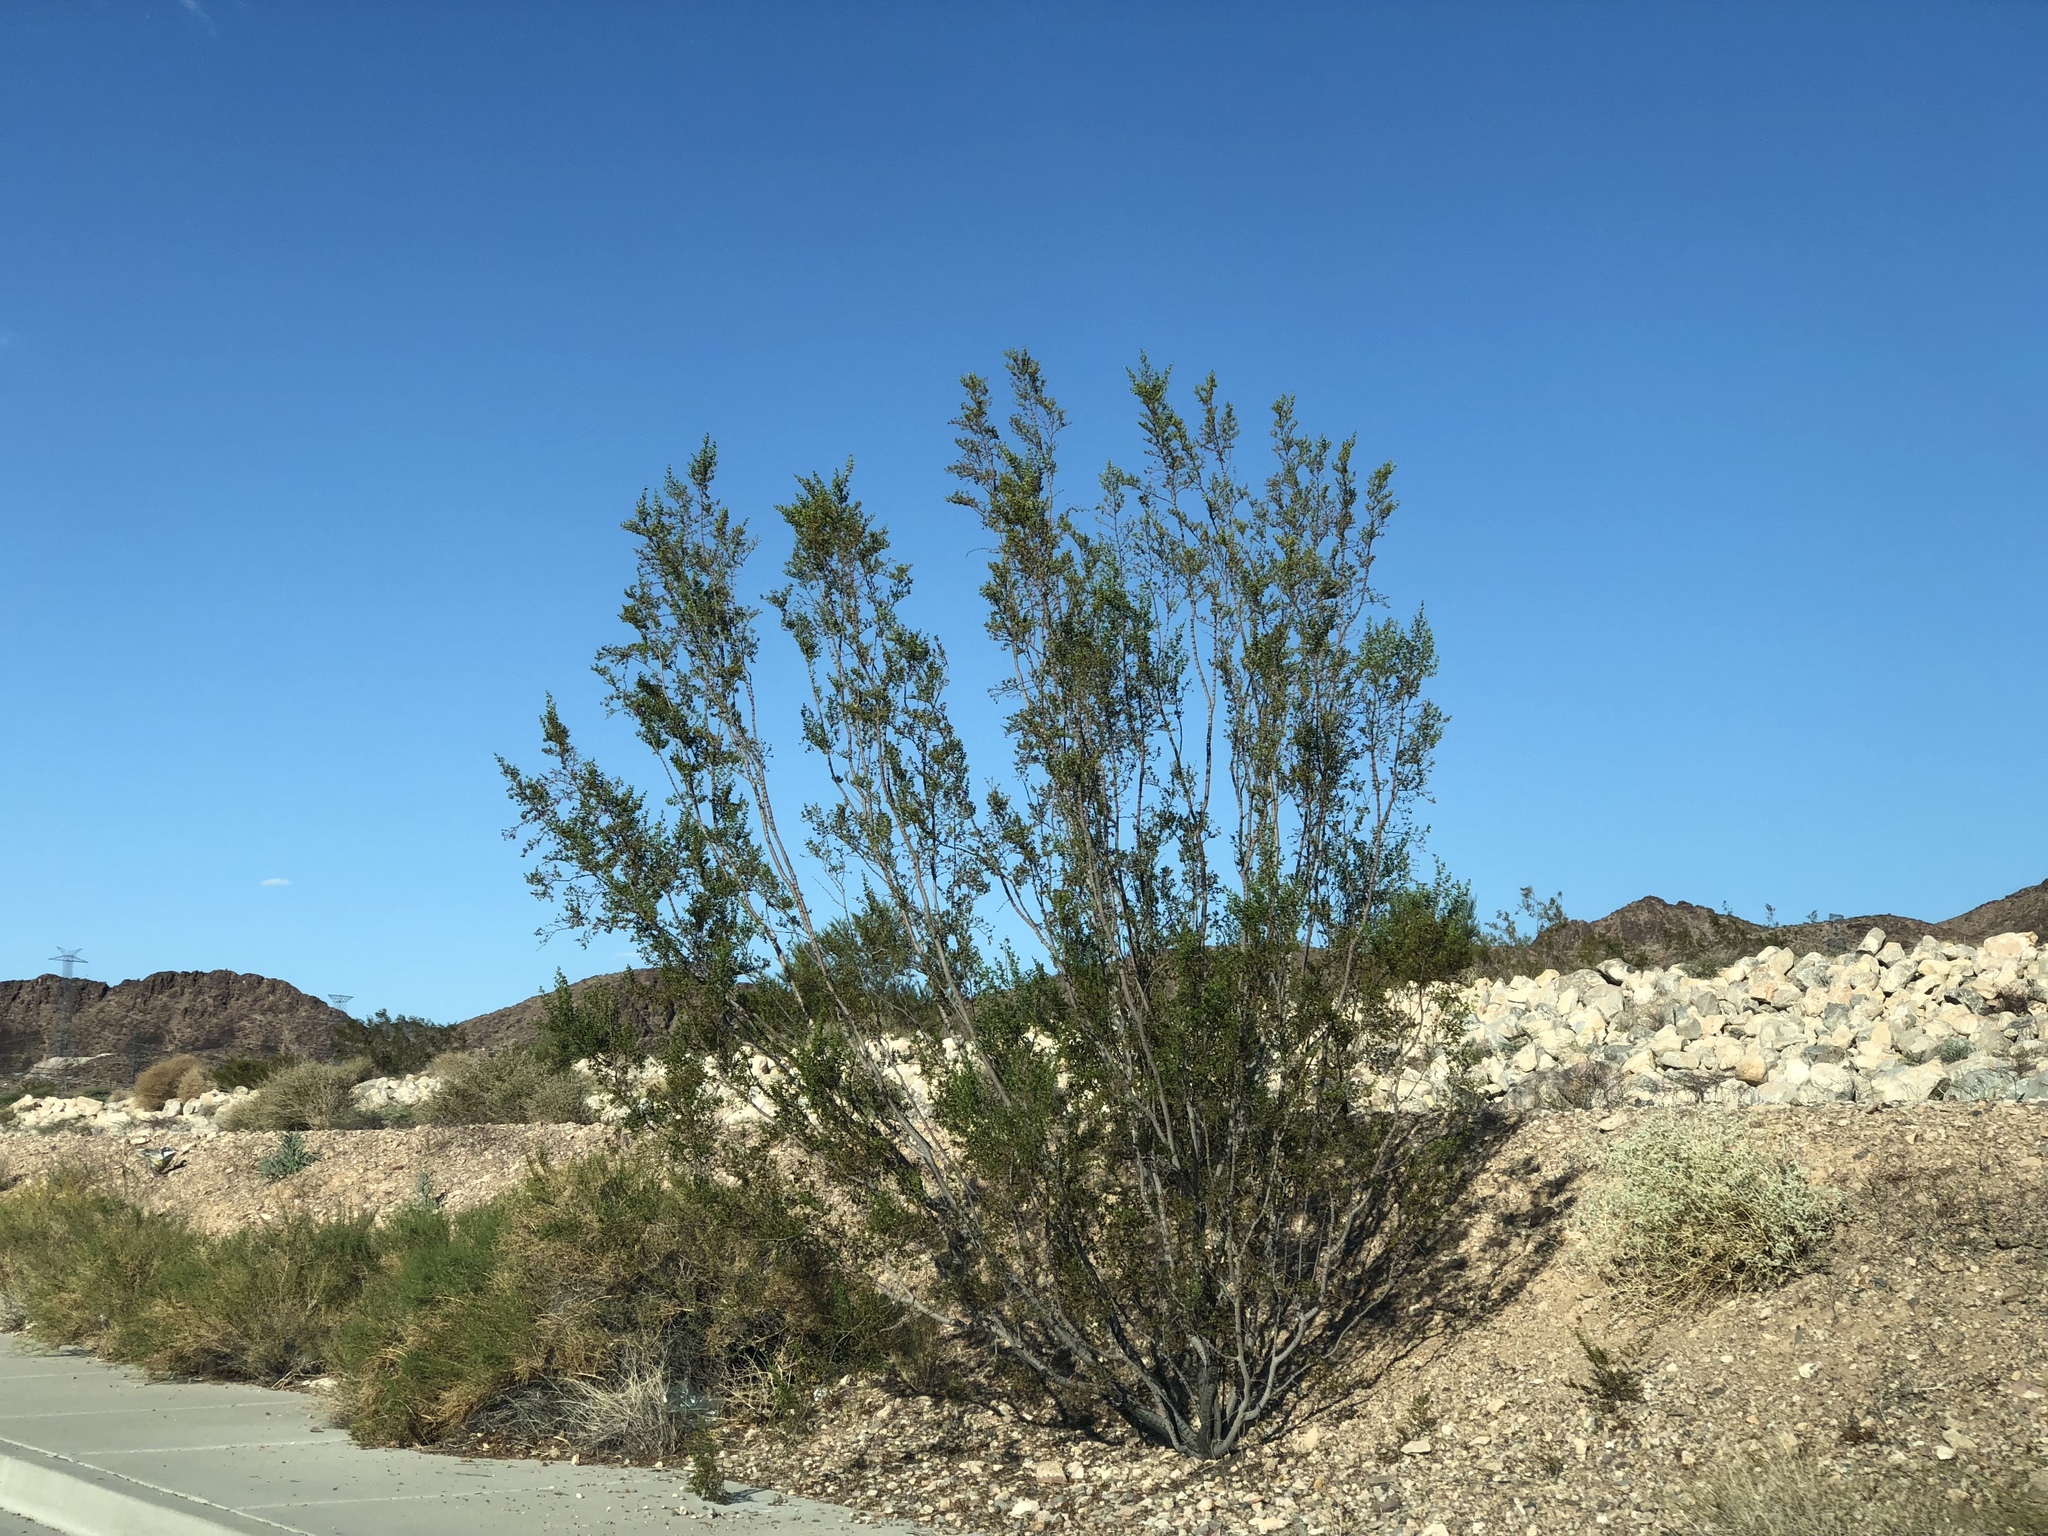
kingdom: Plantae
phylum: Tracheophyta
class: Magnoliopsida
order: Zygophyllales
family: Zygophyllaceae
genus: Larrea
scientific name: Larrea tridentata
